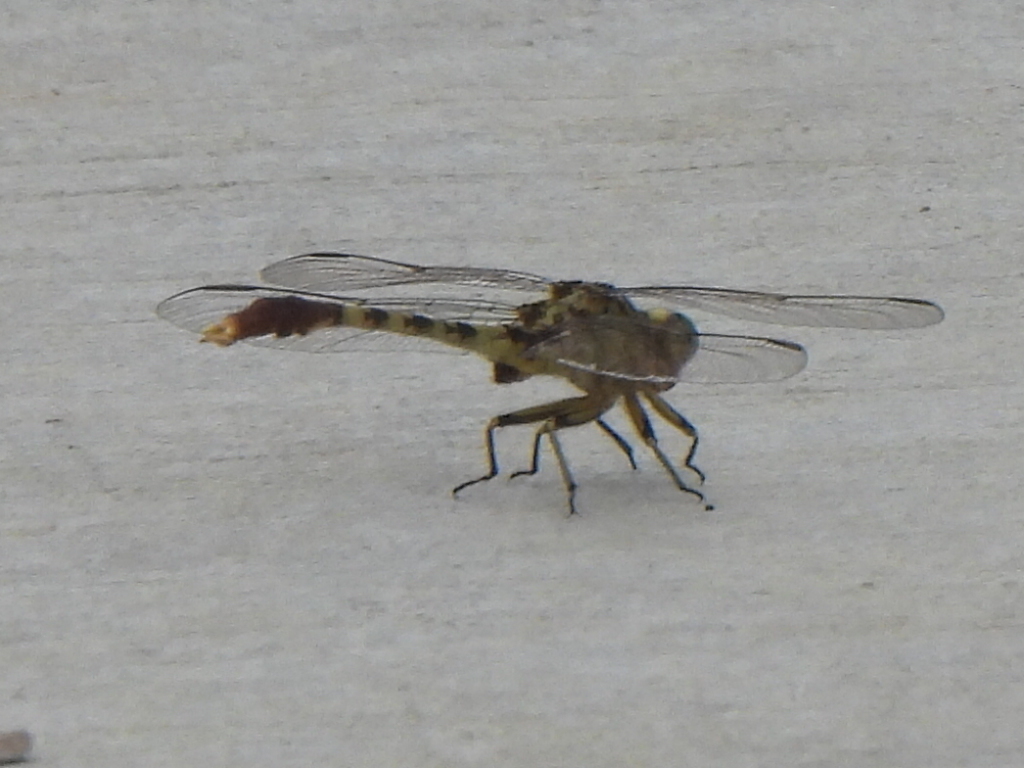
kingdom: Animalia
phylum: Arthropoda
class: Insecta
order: Odonata
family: Gomphidae
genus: Arigomphus
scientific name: Arigomphus submedianus
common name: Jade clubtail
